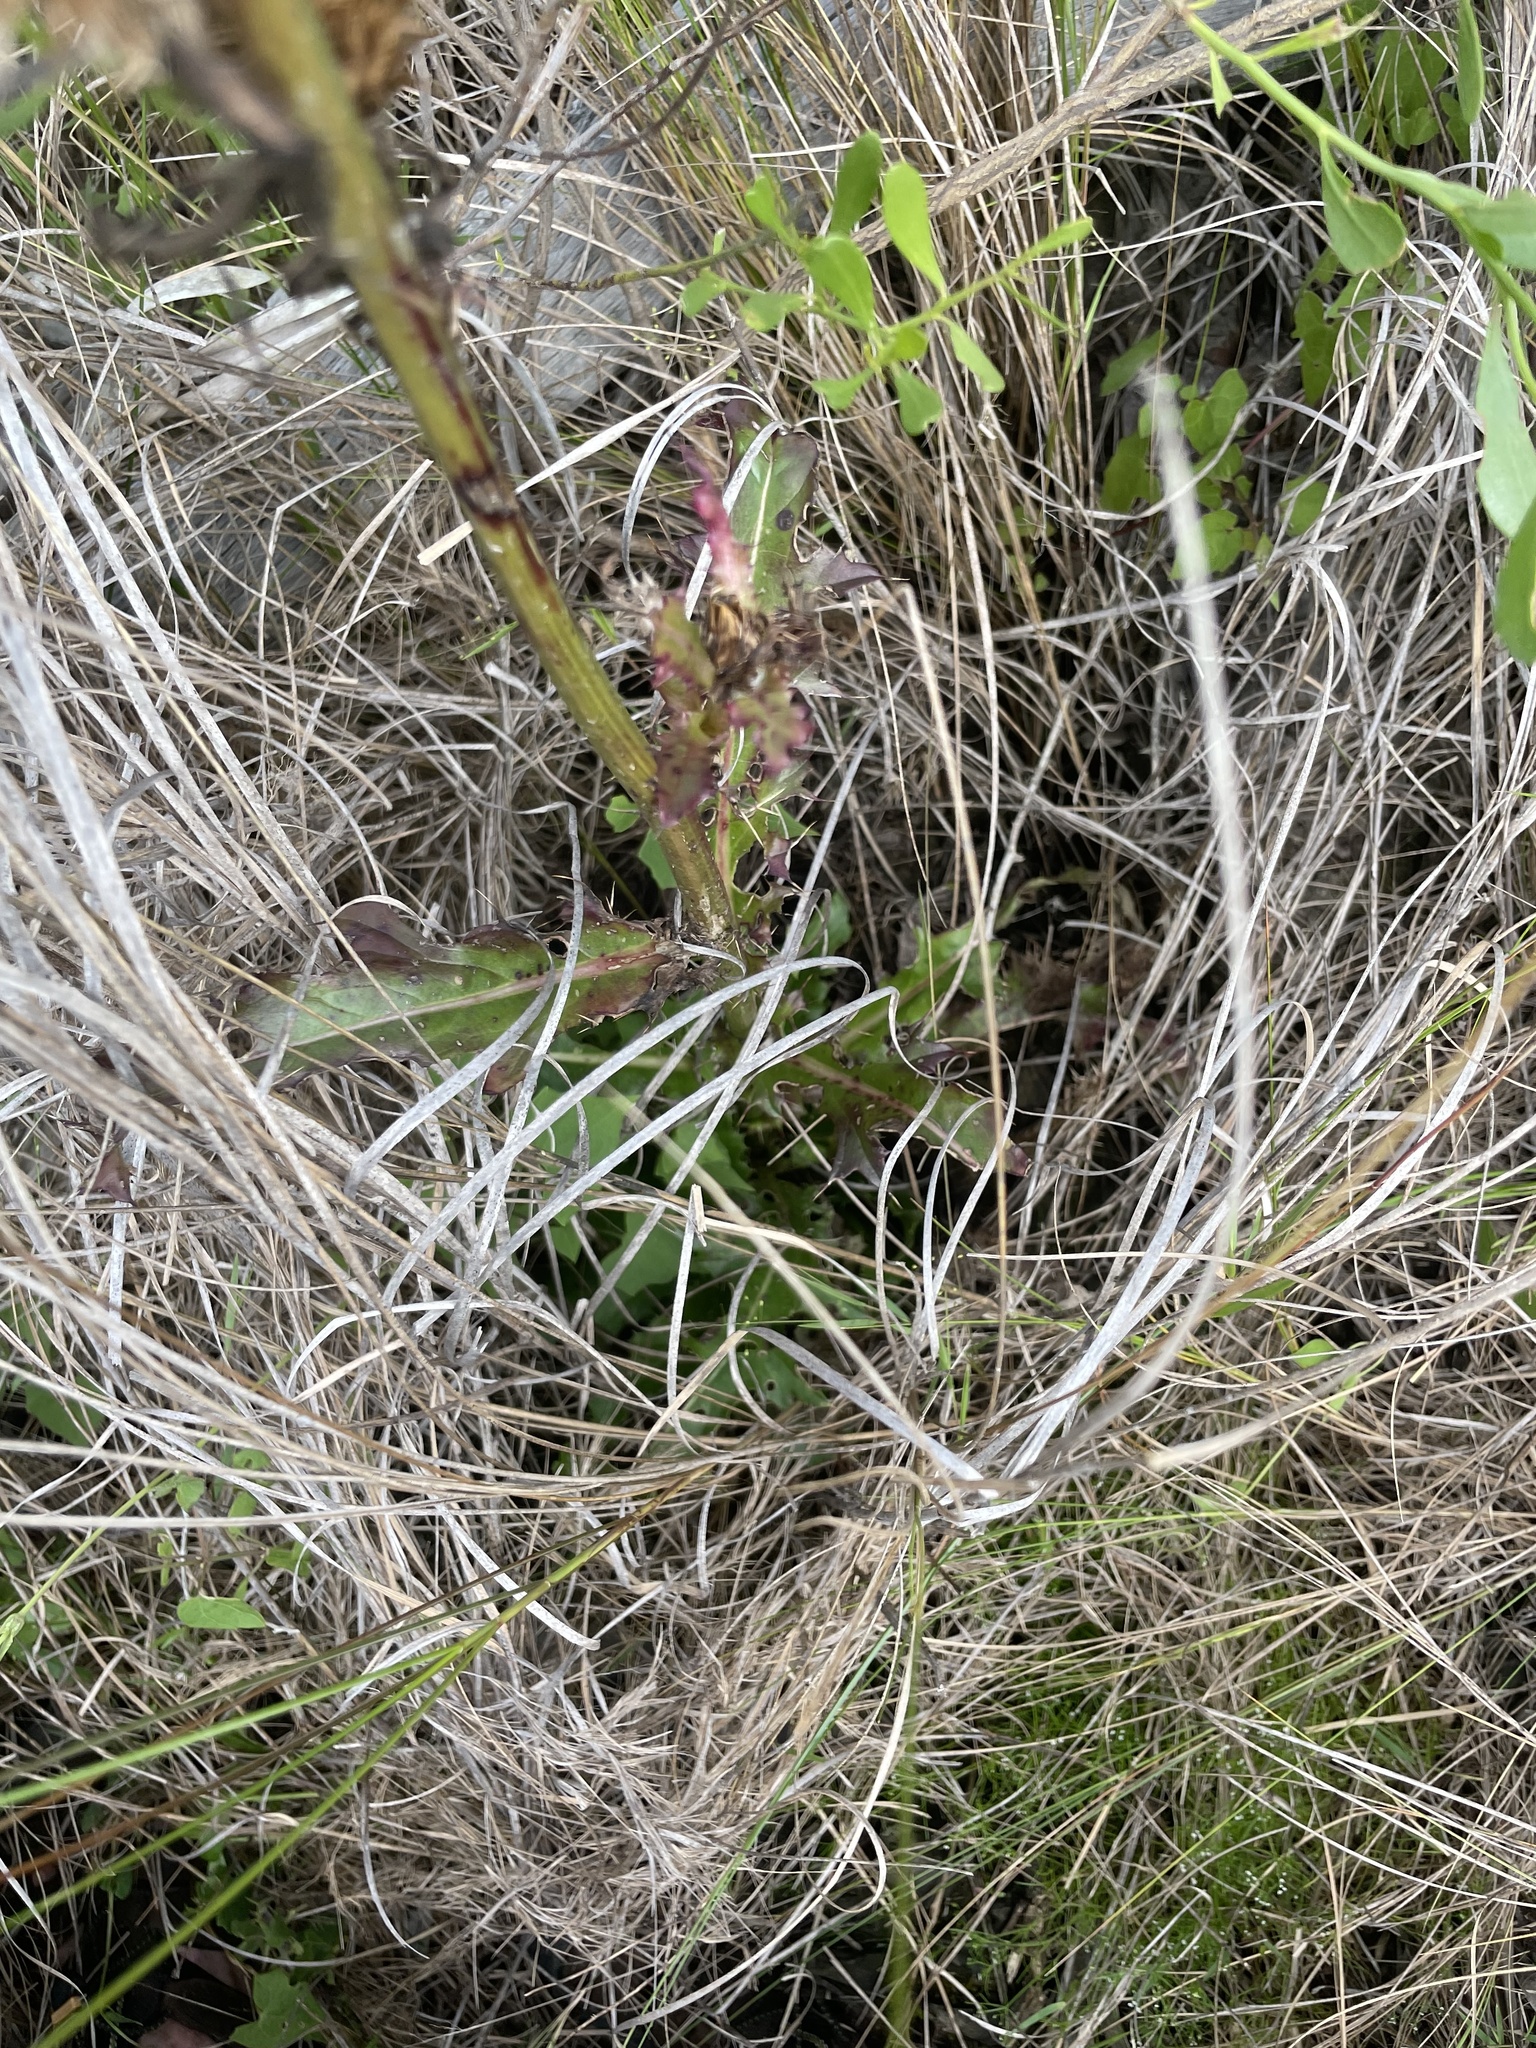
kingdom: Plantae
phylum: Tracheophyta
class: Magnoliopsida
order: Asterales
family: Asteraceae
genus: Cirsium
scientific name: Cirsium horridulum
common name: Bristly thistle
